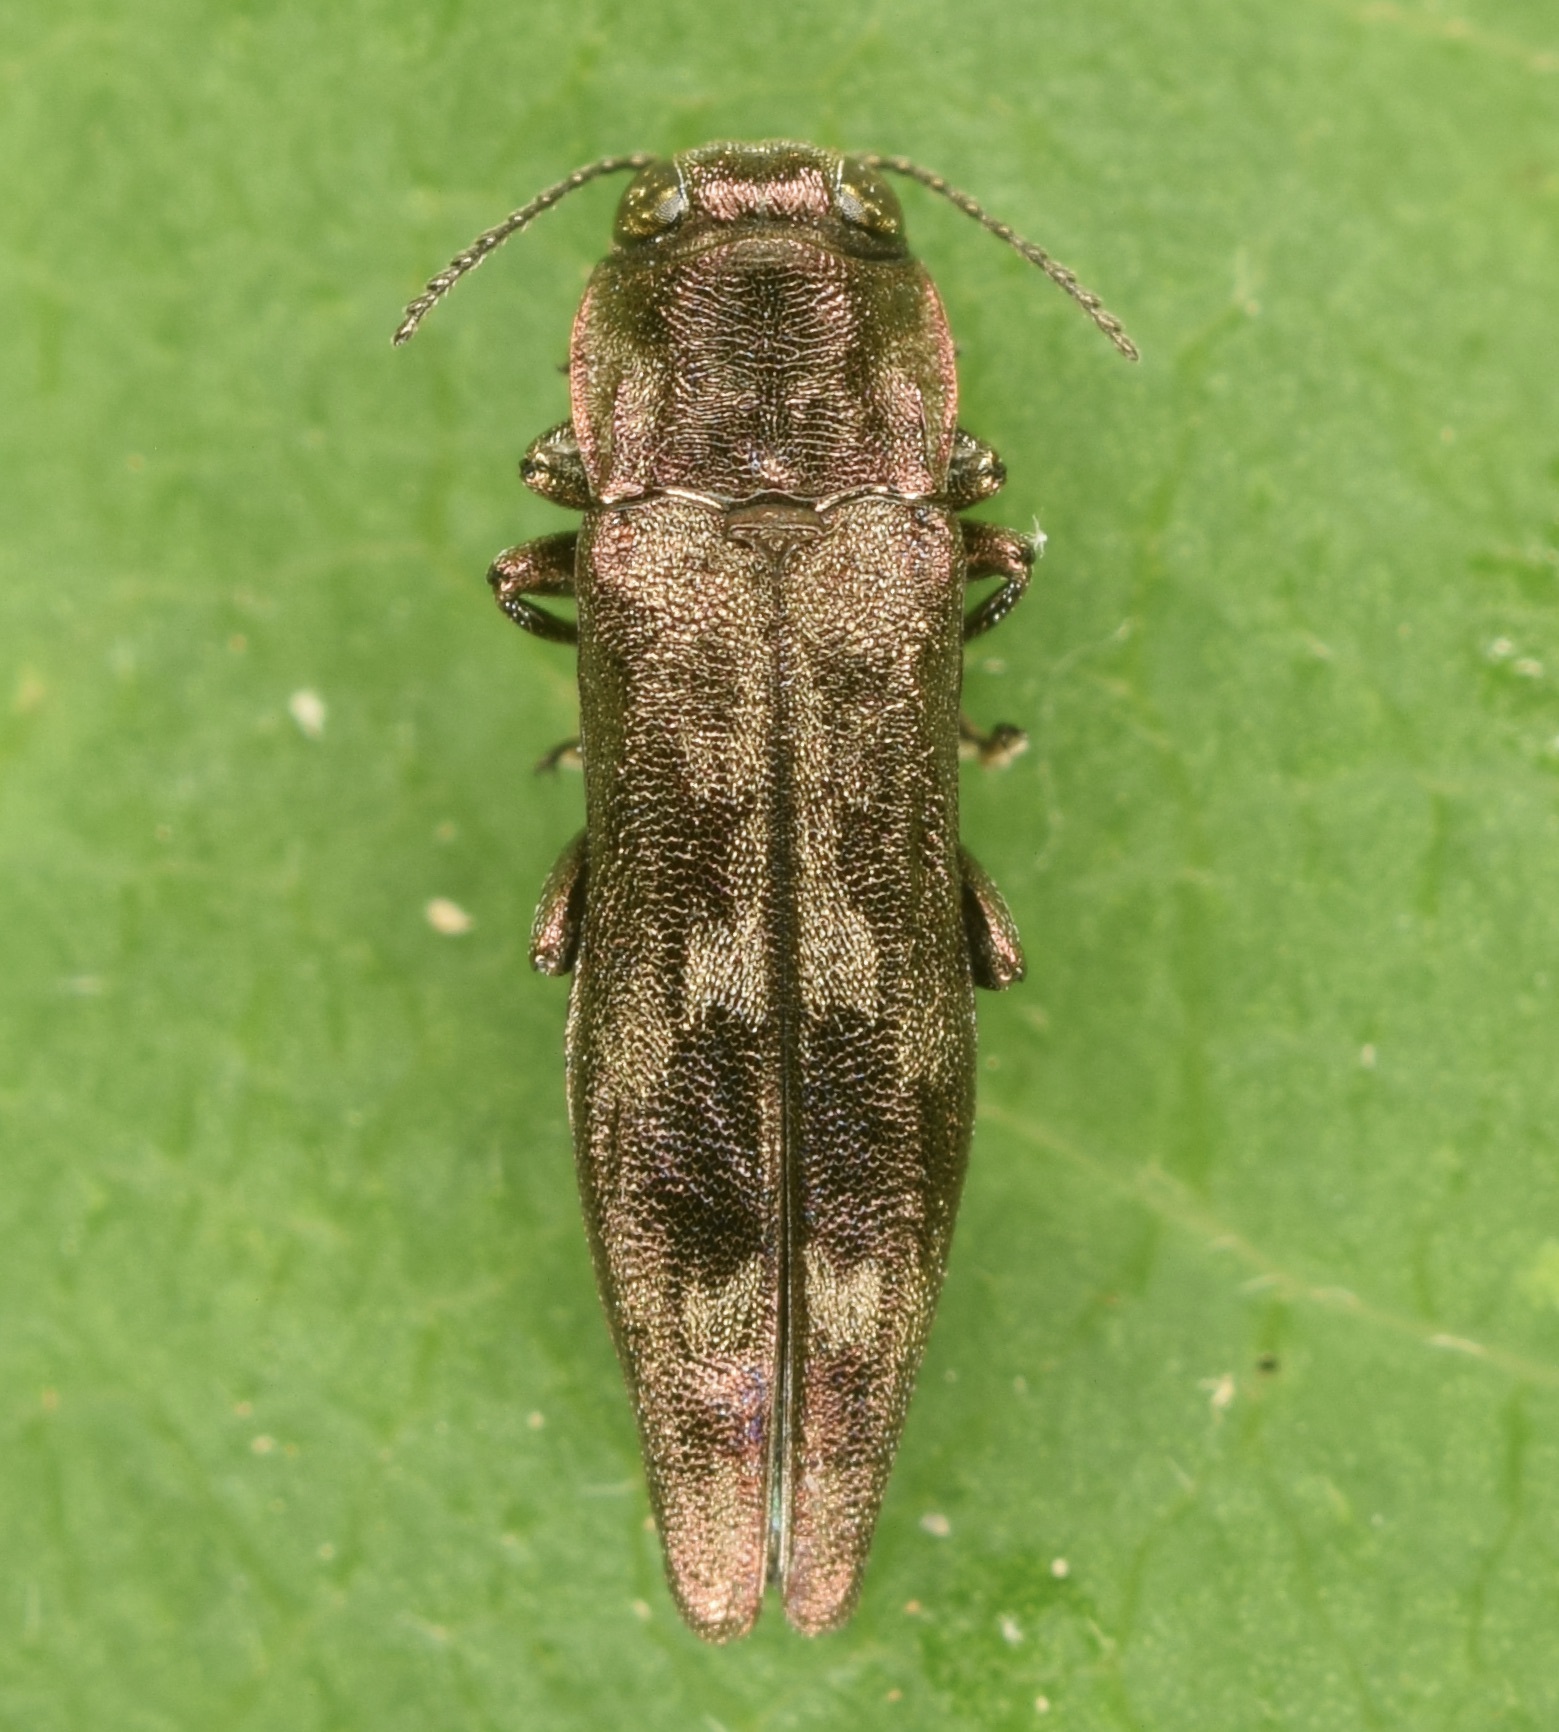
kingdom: Animalia
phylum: Arthropoda
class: Insecta
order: Coleoptera
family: Buprestidae
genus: Agrilus
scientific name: Agrilus lecontei
